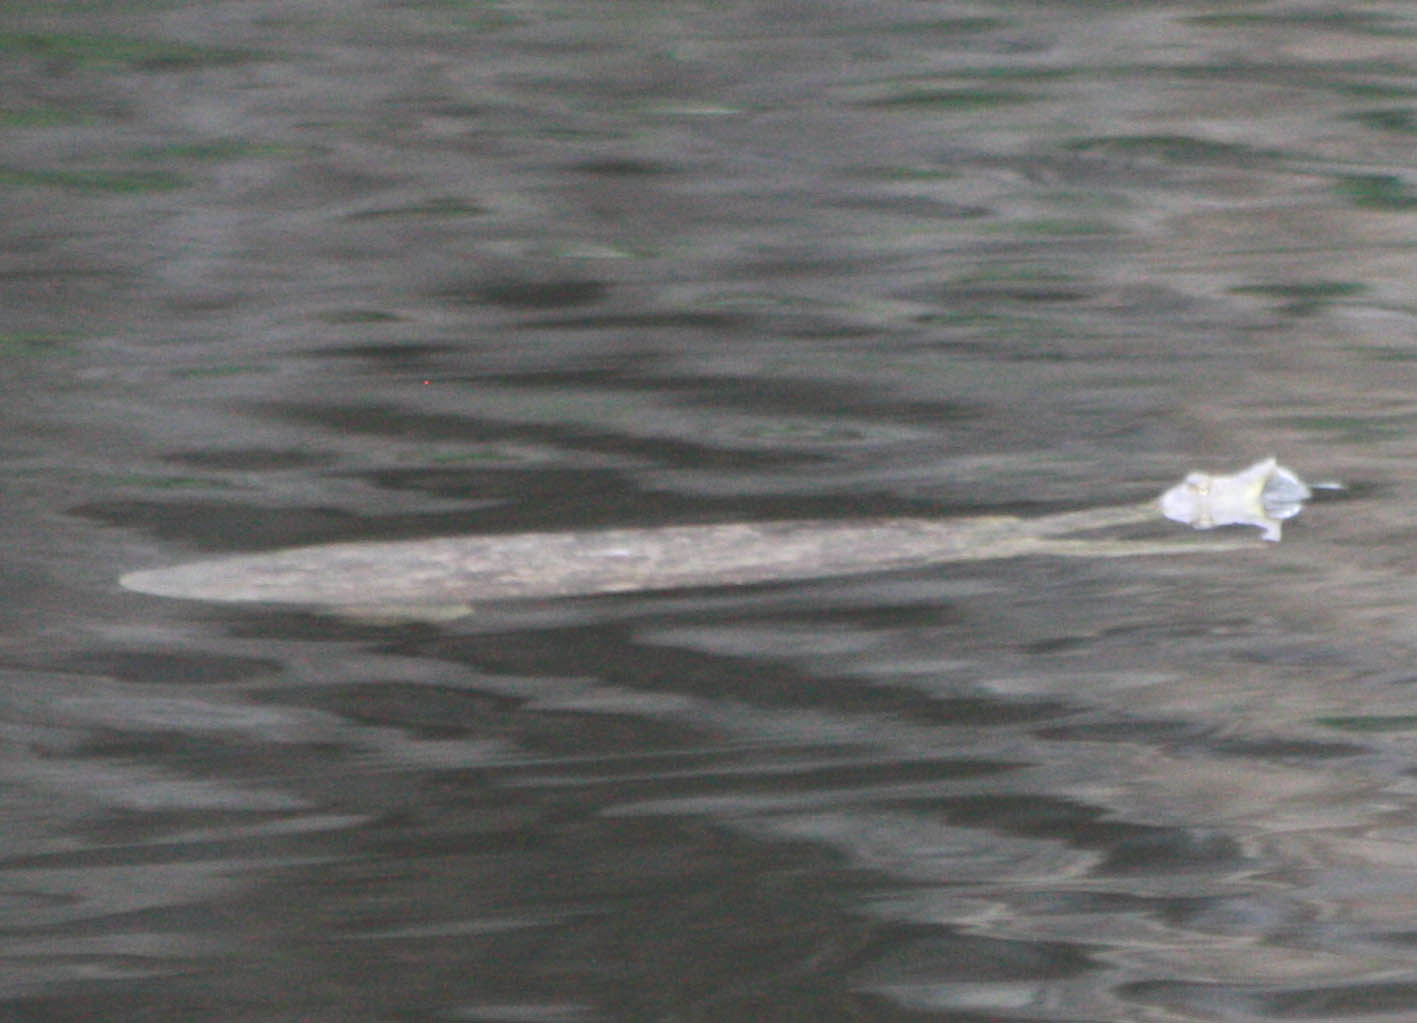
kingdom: Animalia
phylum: Chordata
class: Testudines
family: Trionychidae
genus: Apalone
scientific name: Apalone spinifera
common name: Spiny softshell turtle
